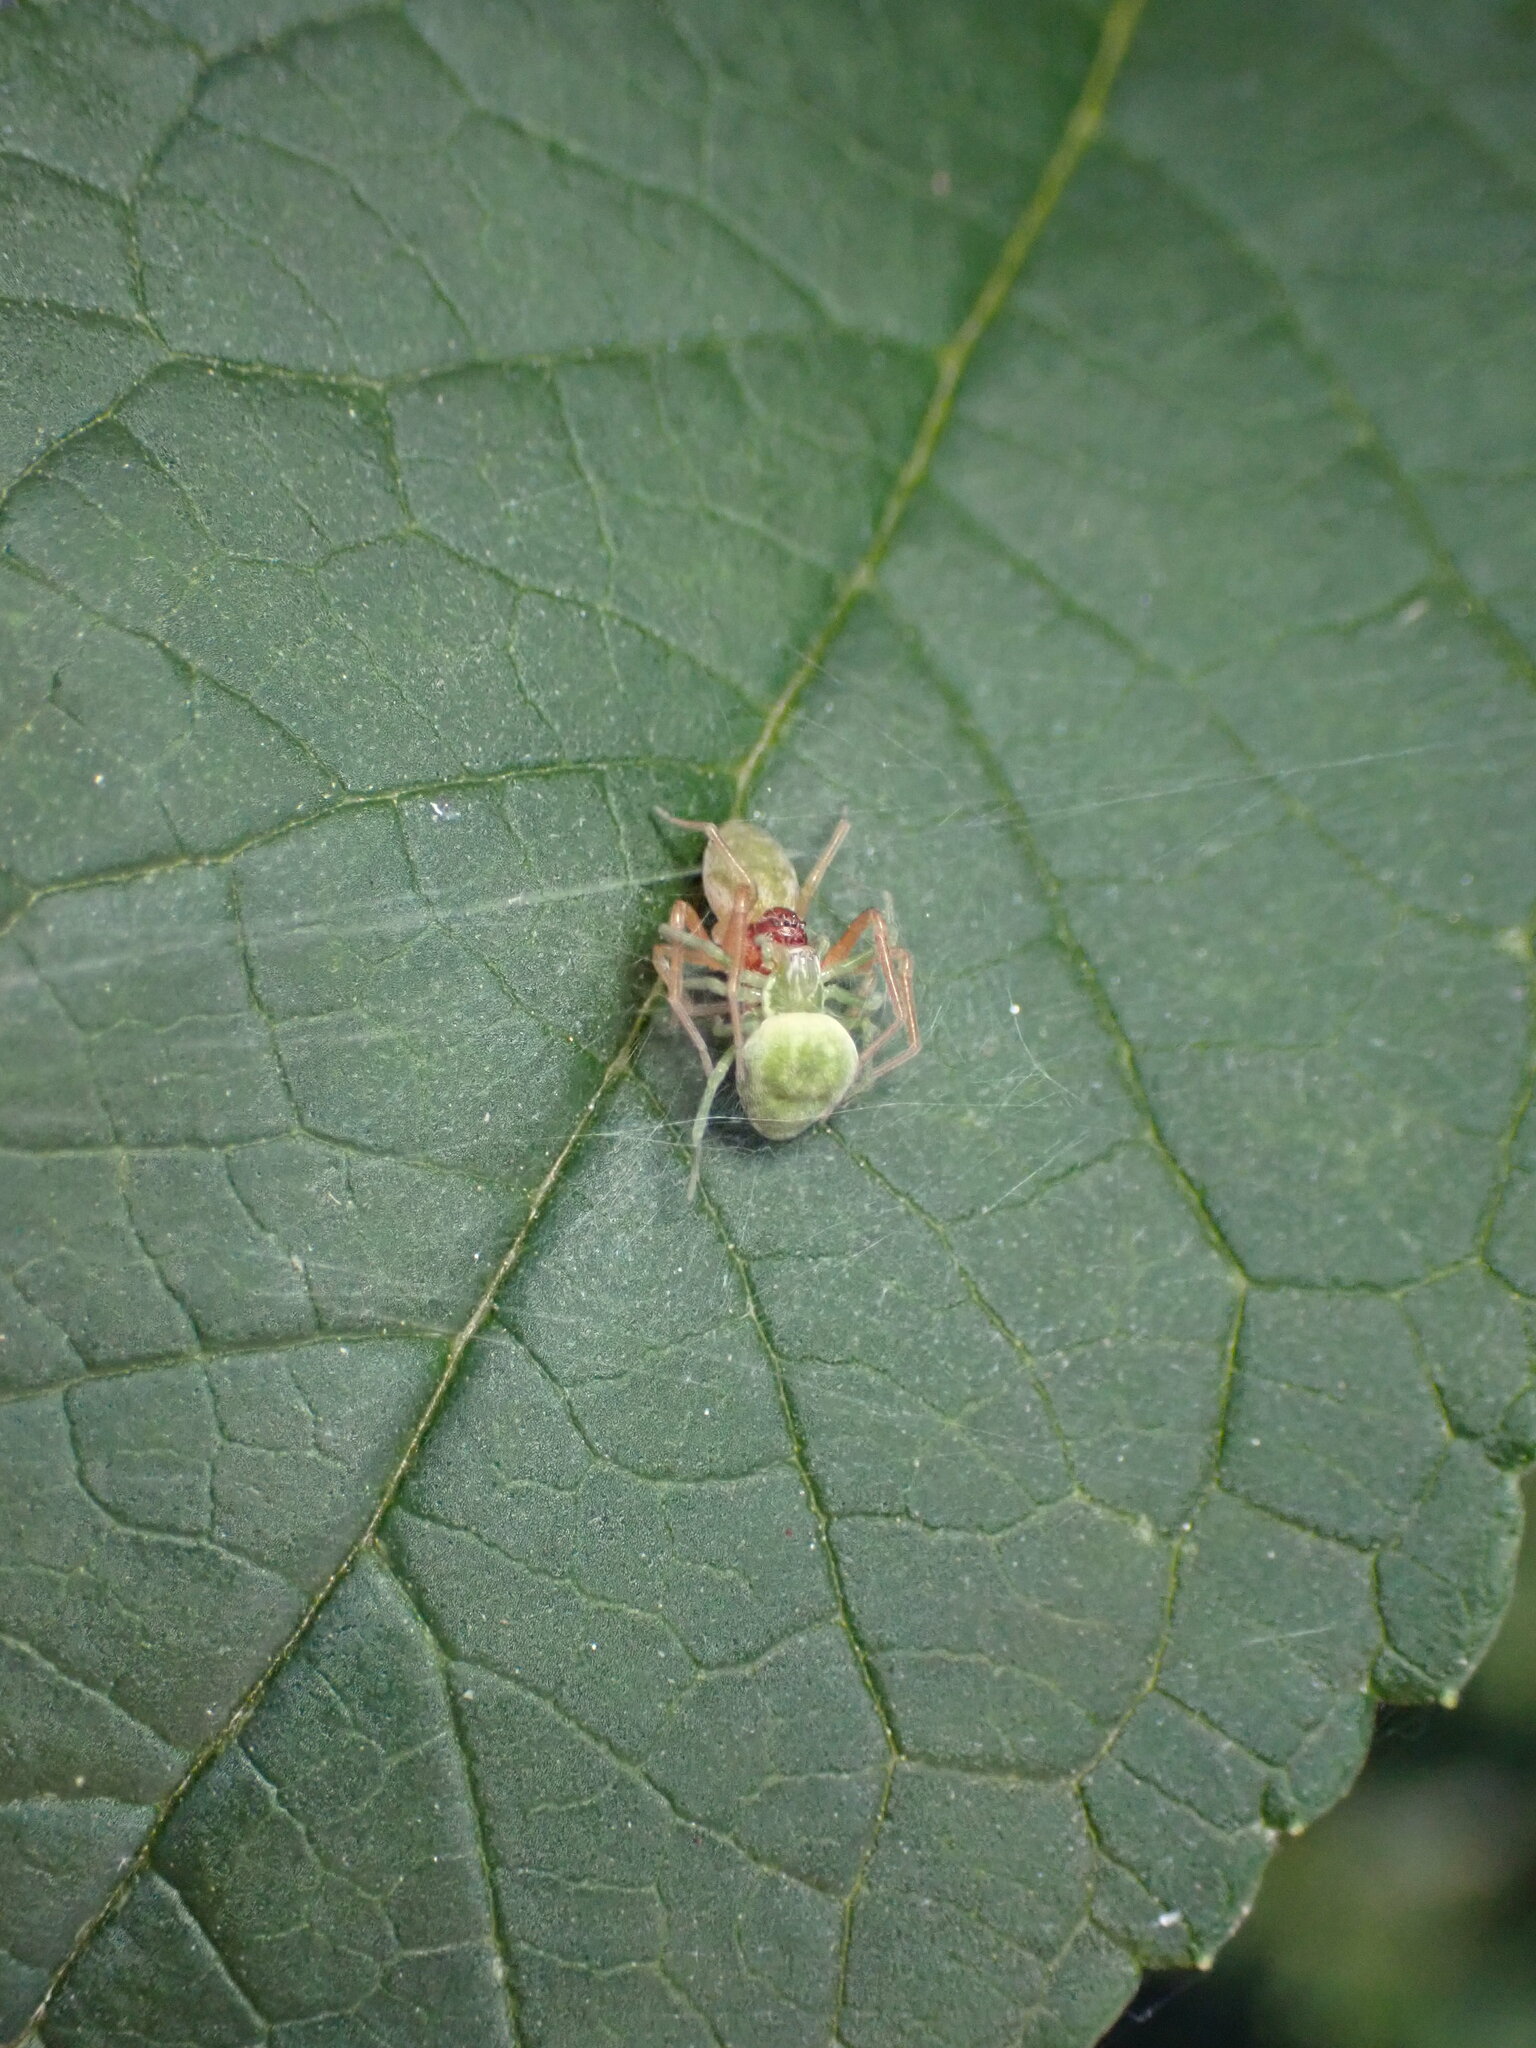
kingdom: Animalia
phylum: Arthropoda
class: Arachnida
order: Araneae
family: Dictynidae
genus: Nigma
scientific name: Nigma walckenaeri
